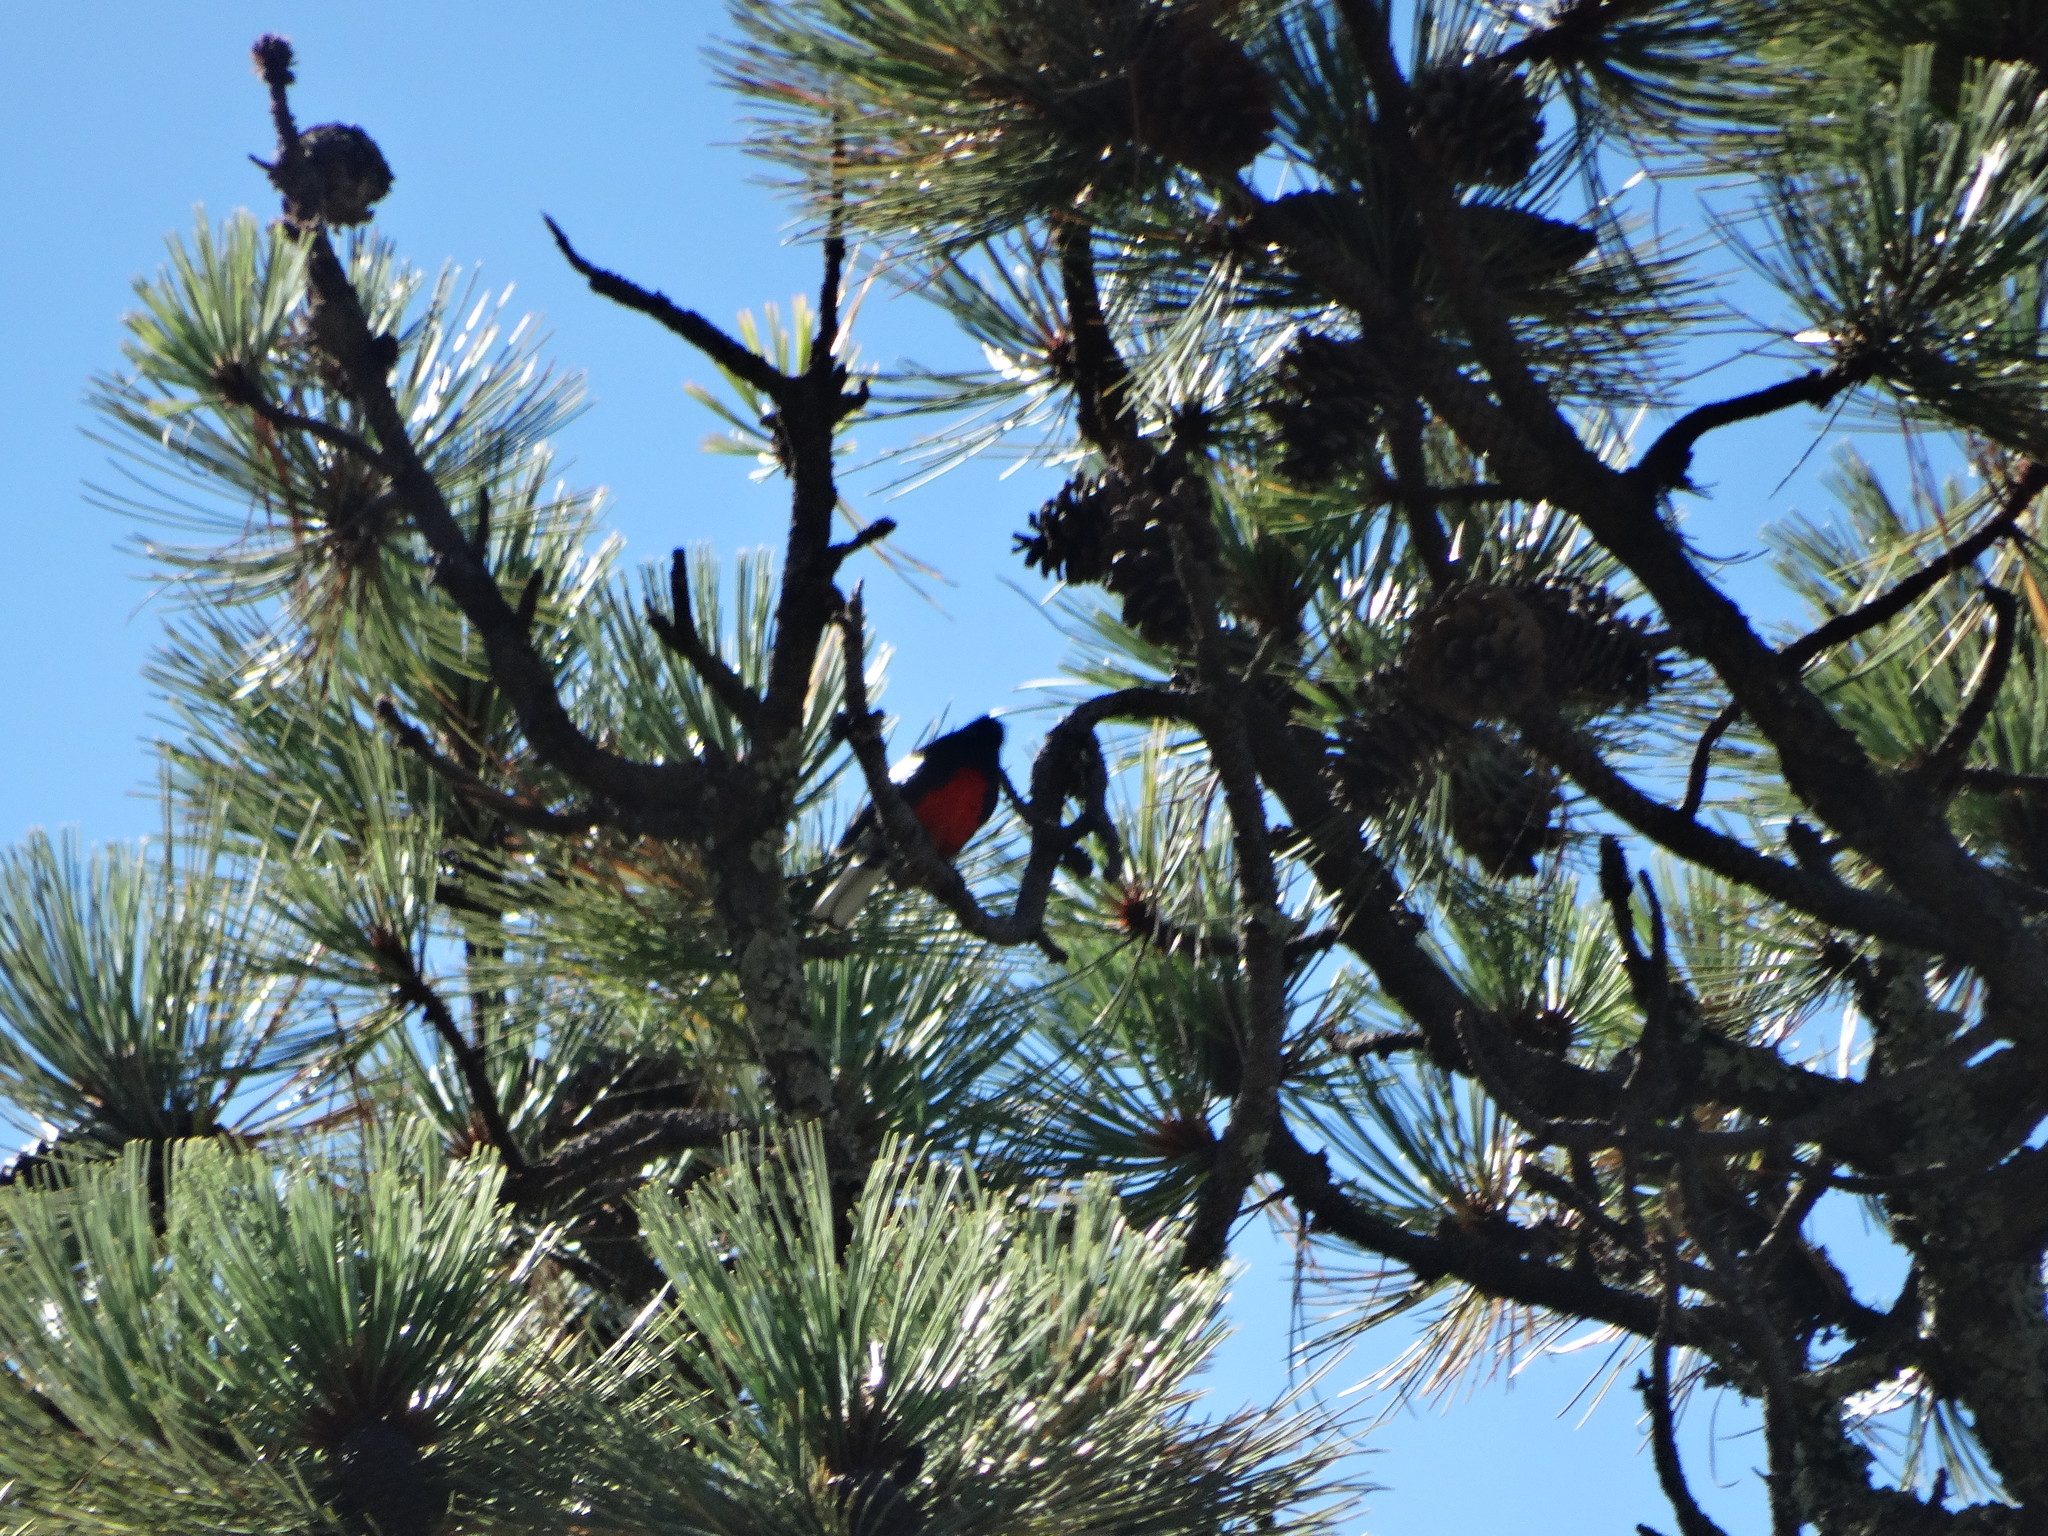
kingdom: Animalia
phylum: Chordata
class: Aves
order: Passeriformes
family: Parulidae
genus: Myioborus
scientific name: Myioborus pictus
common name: Painted whitestart
